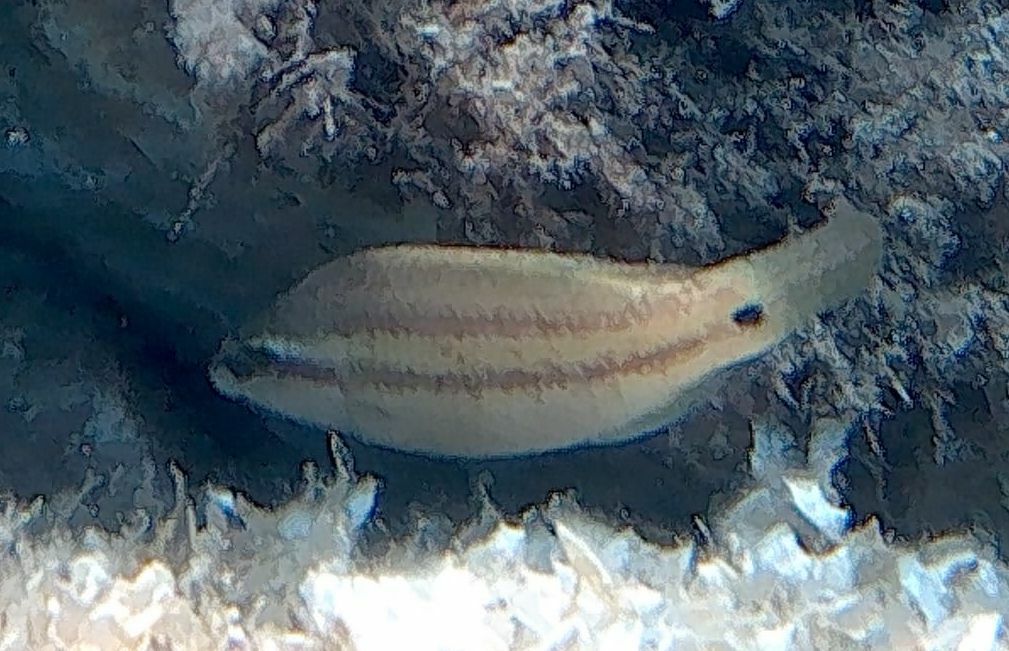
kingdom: Animalia
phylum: Chordata
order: Perciformes
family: Labridae
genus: Symphodus
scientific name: Symphodus tinca
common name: Peacock wrasse
